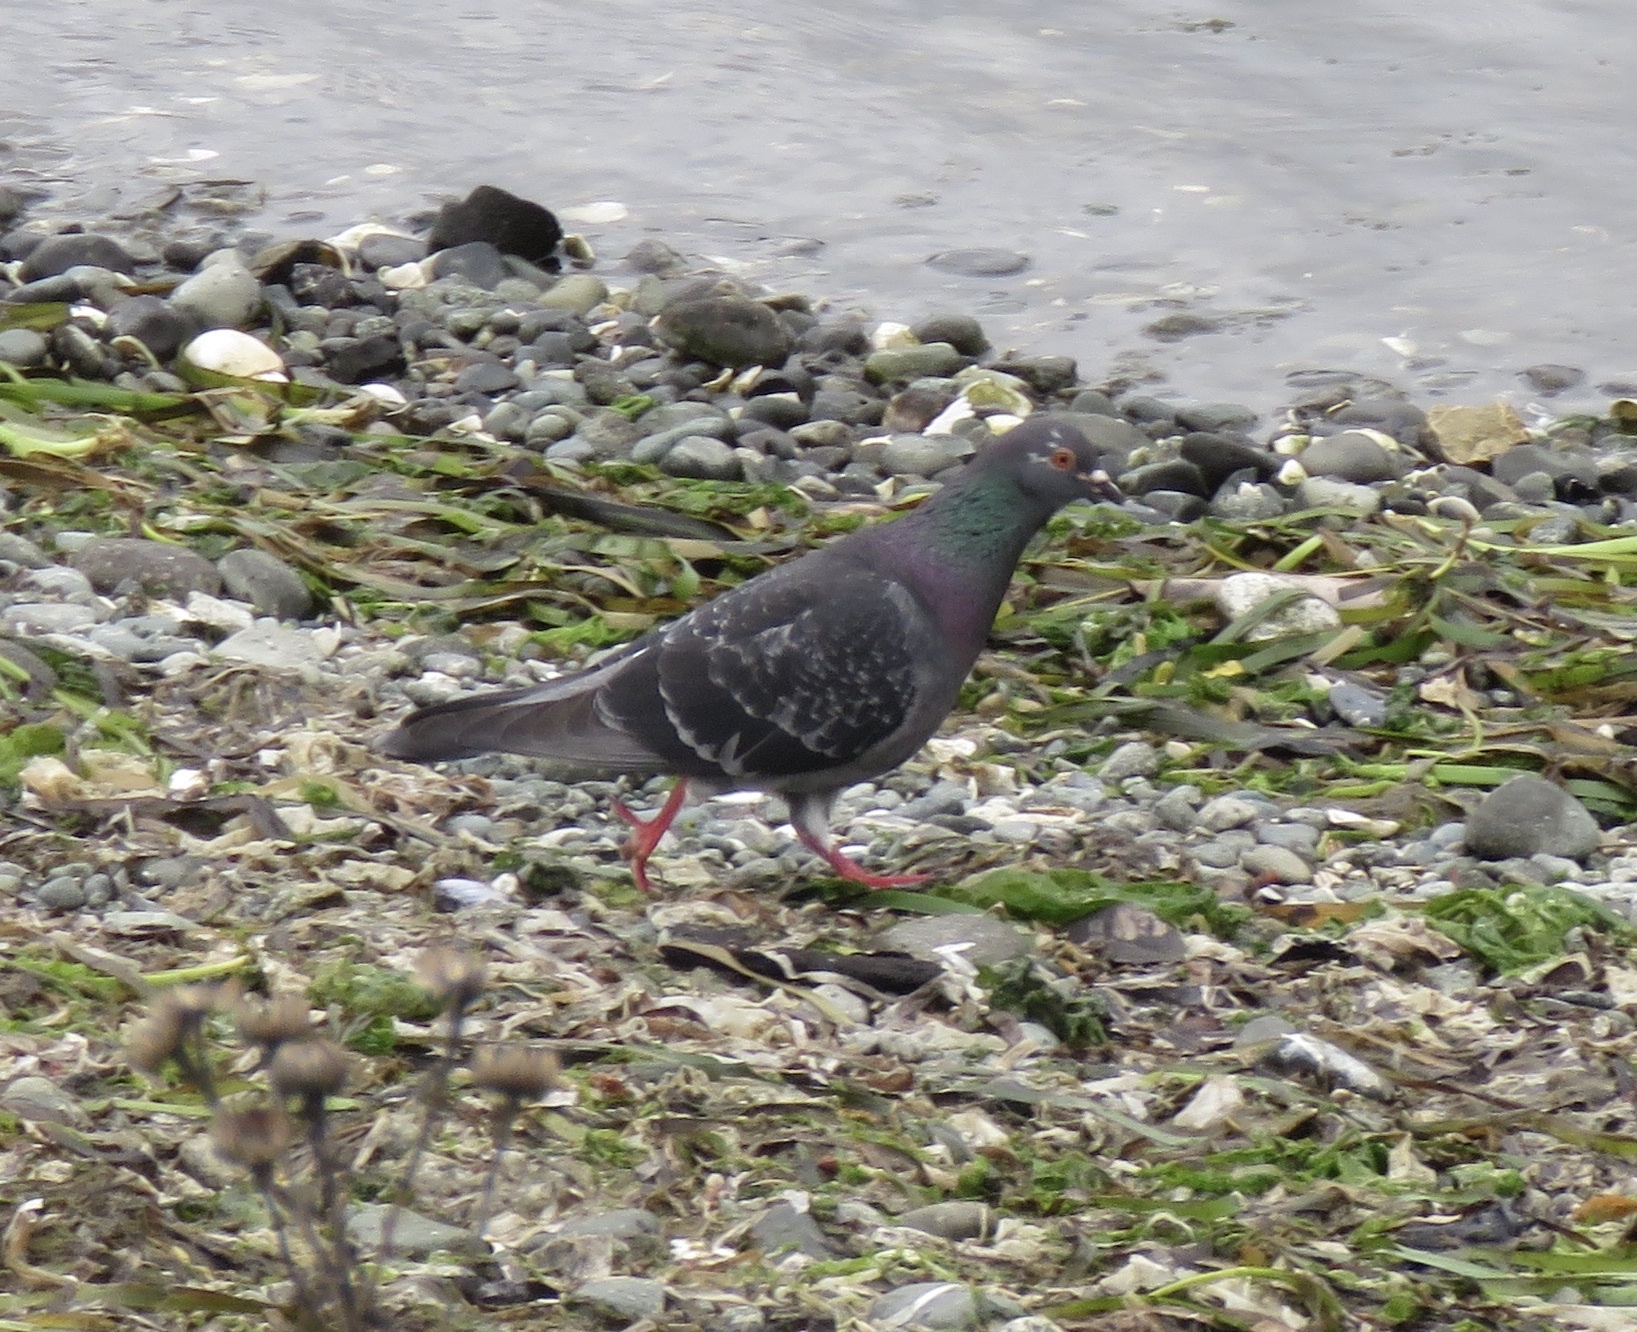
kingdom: Animalia
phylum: Chordata
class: Aves
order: Columbiformes
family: Columbidae
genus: Columba
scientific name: Columba livia
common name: Rock pigeon
